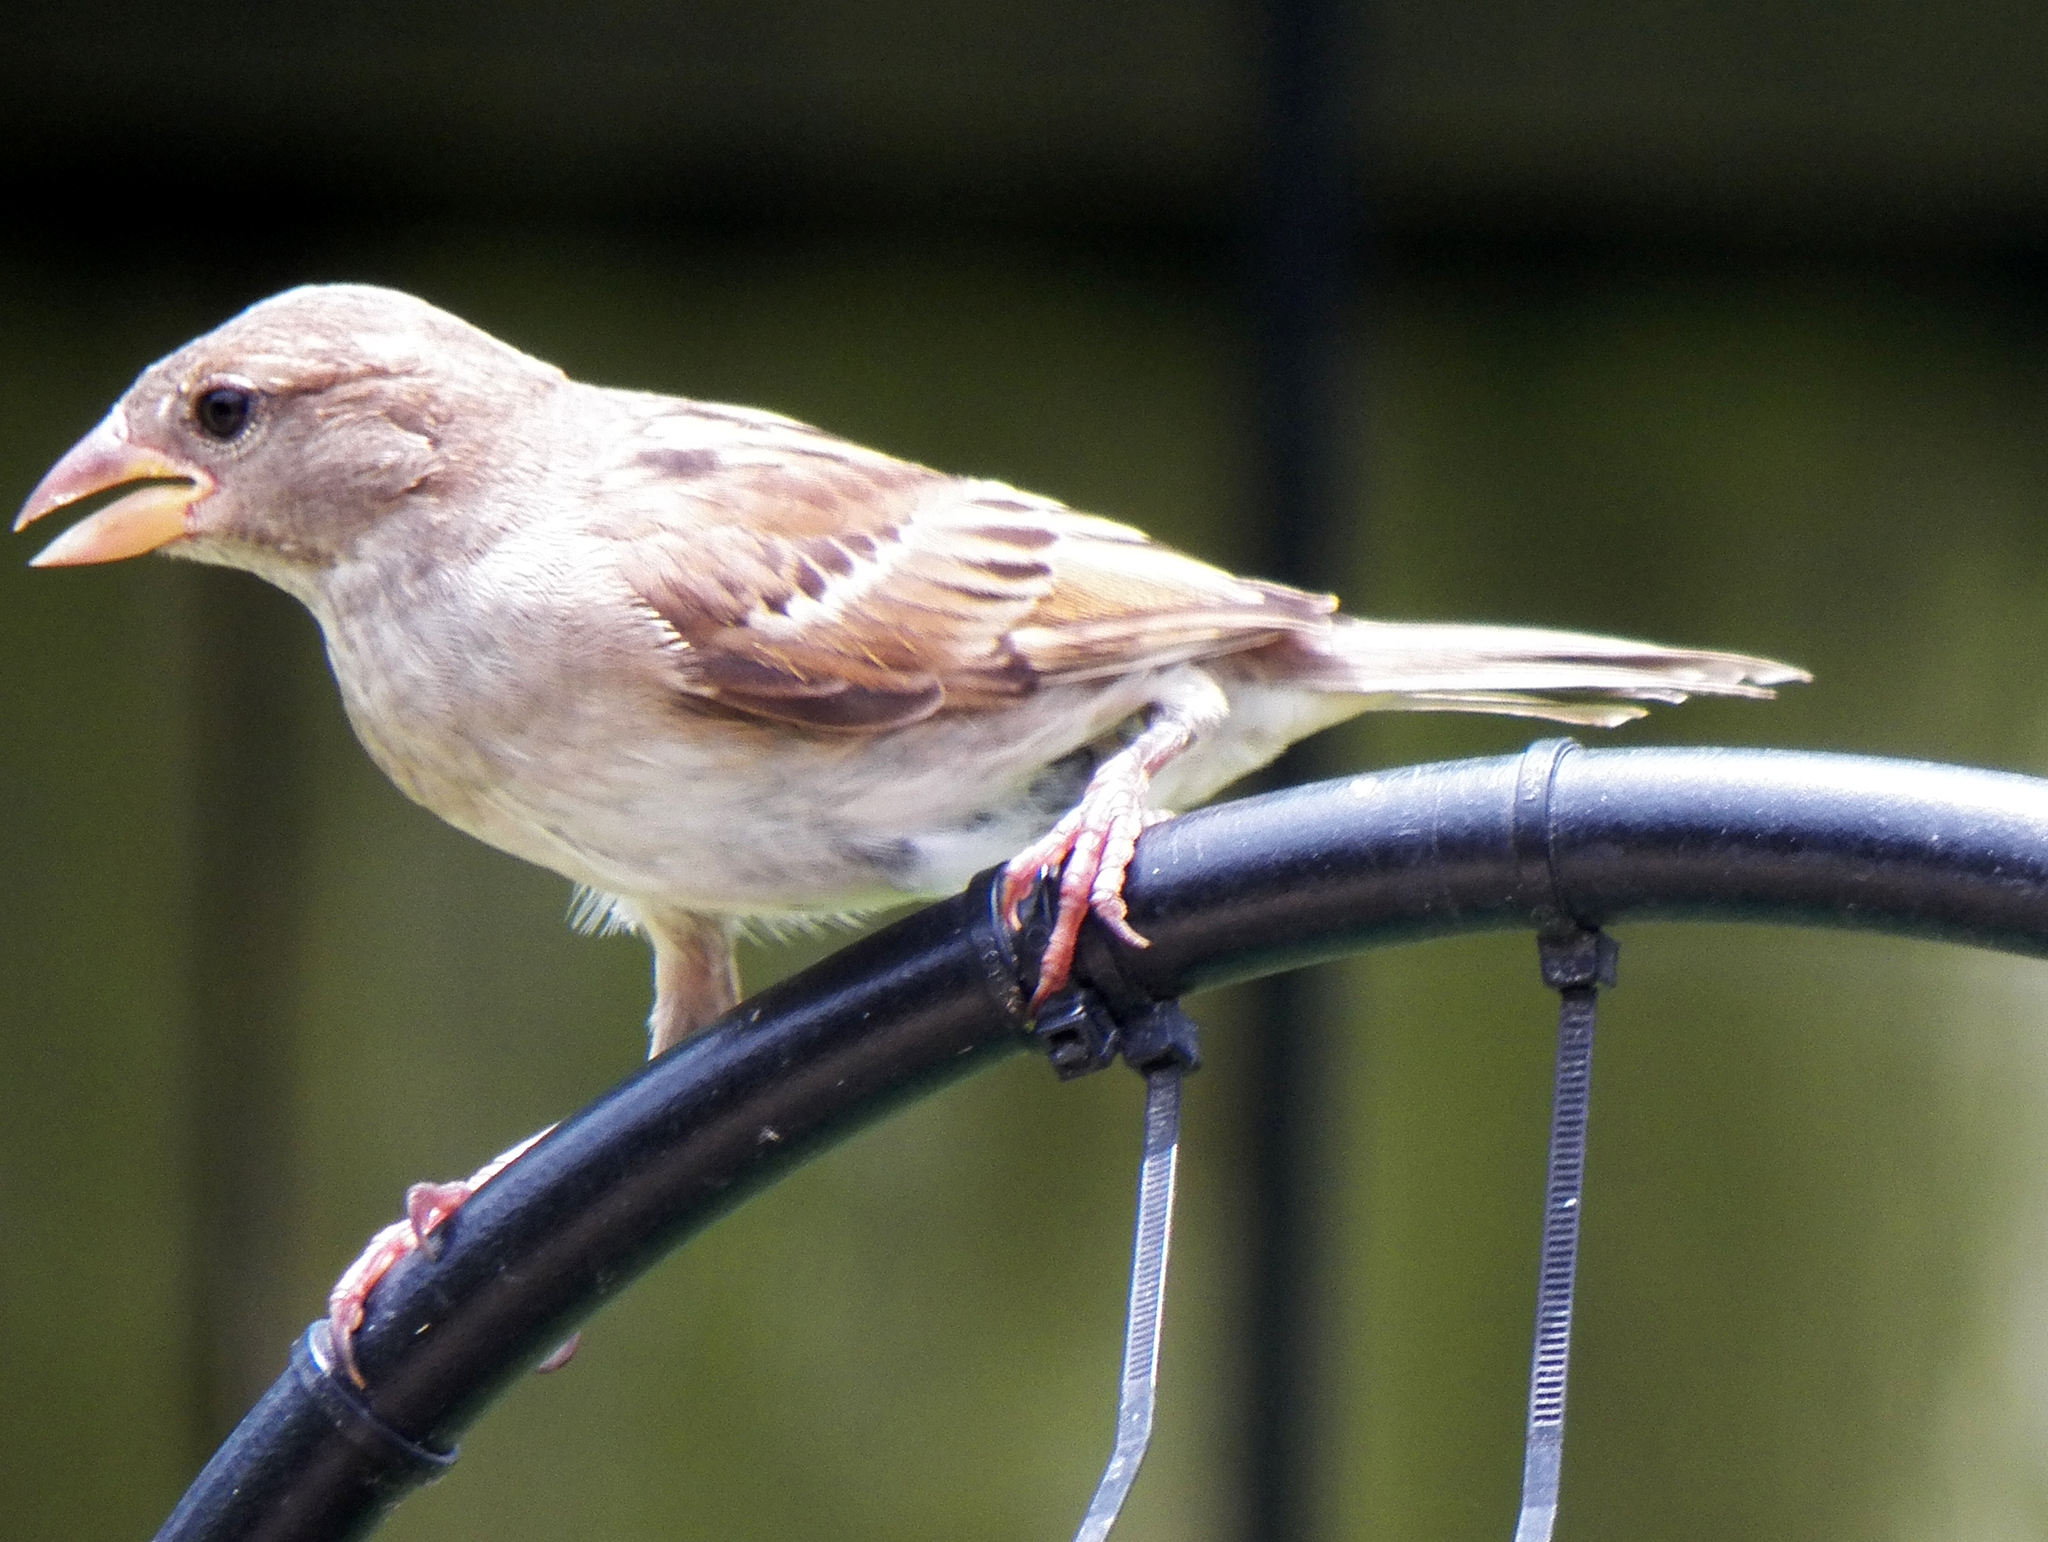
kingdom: Animalia
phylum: Chordata
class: Aves
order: Passeriformes
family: Passeridae
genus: Passer
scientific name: Passer domesticus
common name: House sparrow
